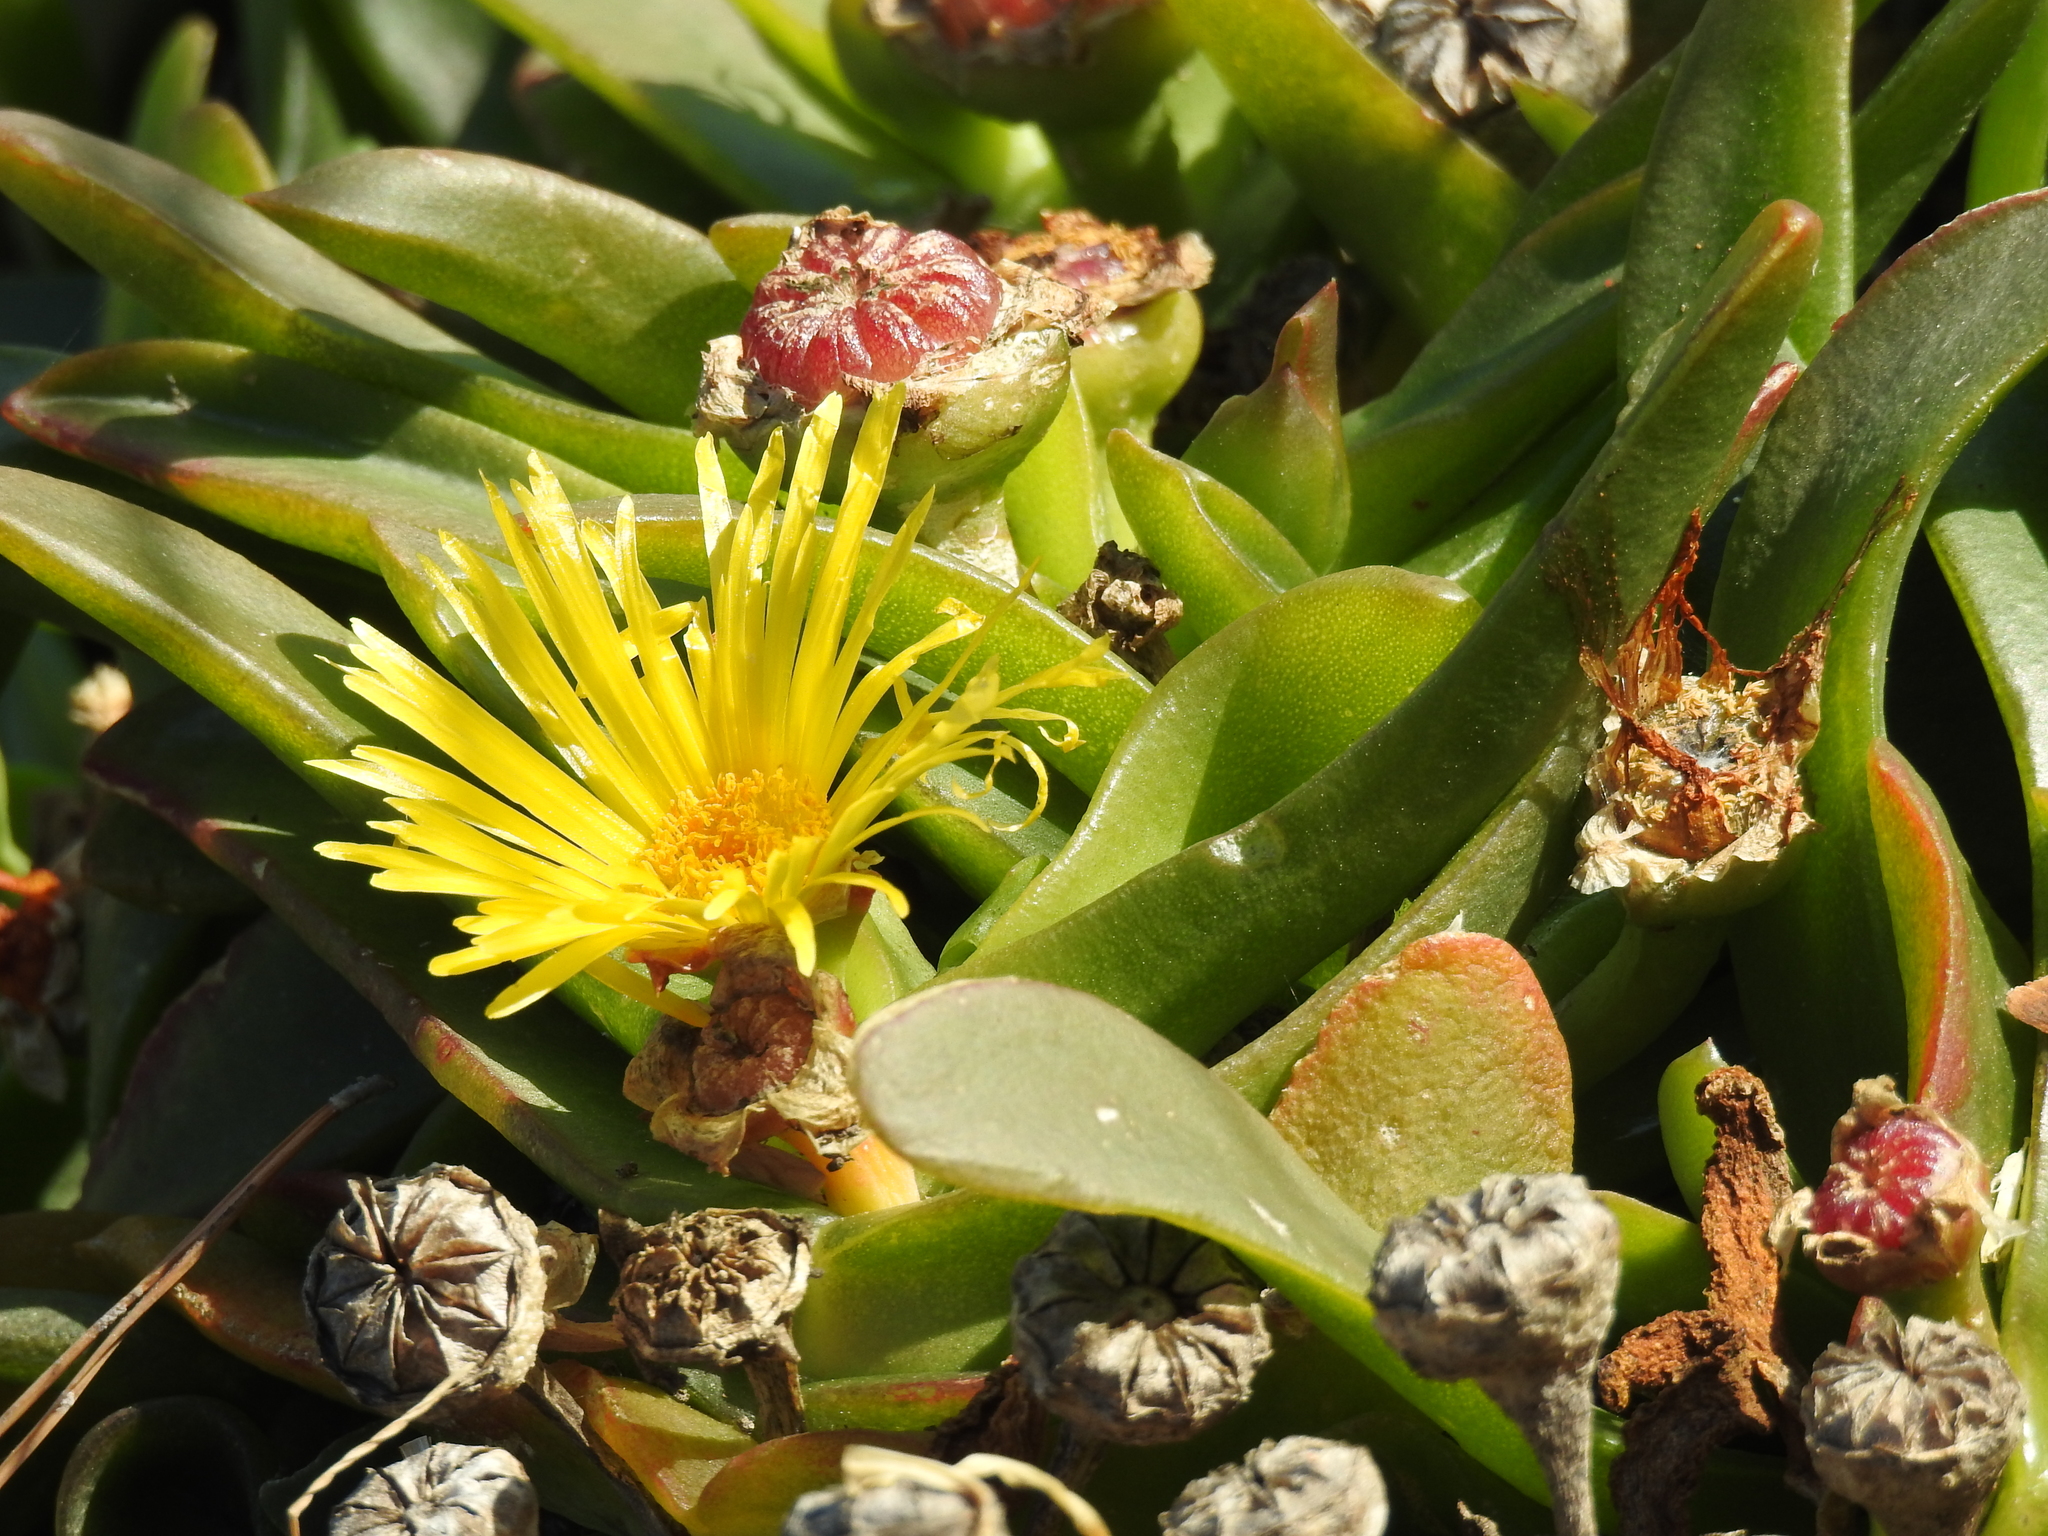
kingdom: Plantae
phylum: Tracheophyta
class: Magnoliopsida
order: Caryophyllales
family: Aizoaceae
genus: Carpobrotus
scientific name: Carpobrotus edulis
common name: Hottentot-fig
